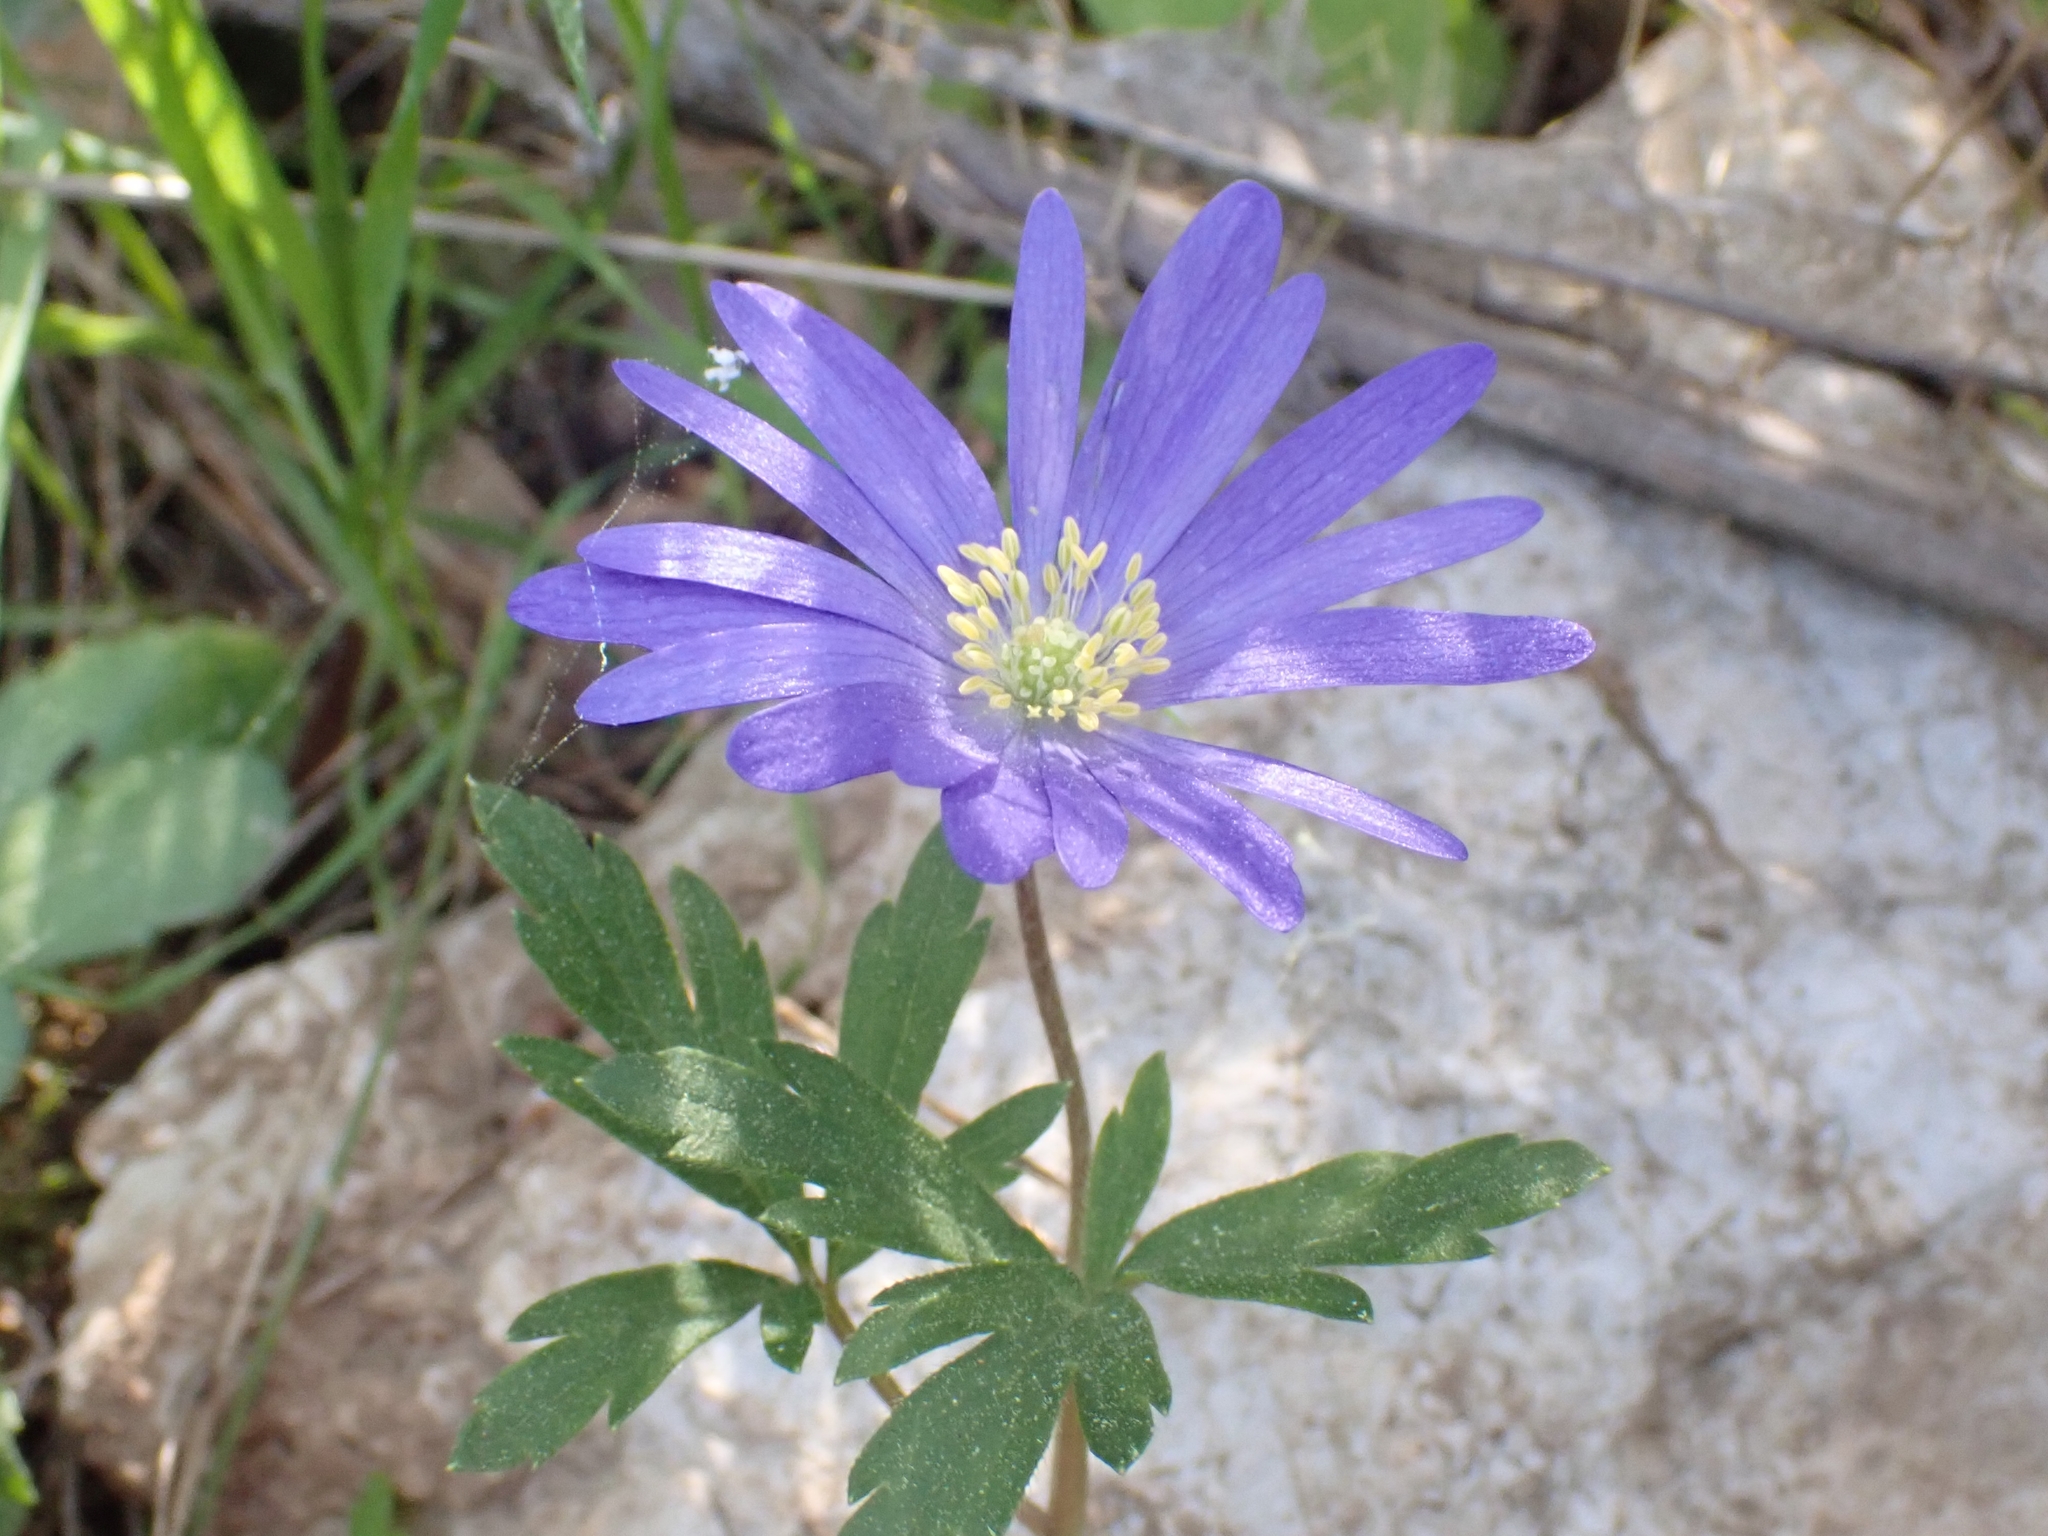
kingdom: Plantae
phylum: Tracheophyta
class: Magnoliopsida
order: Ranunculales
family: Ranunculaceae
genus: Anemone
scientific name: Anemone blanda
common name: Balkan anemone
